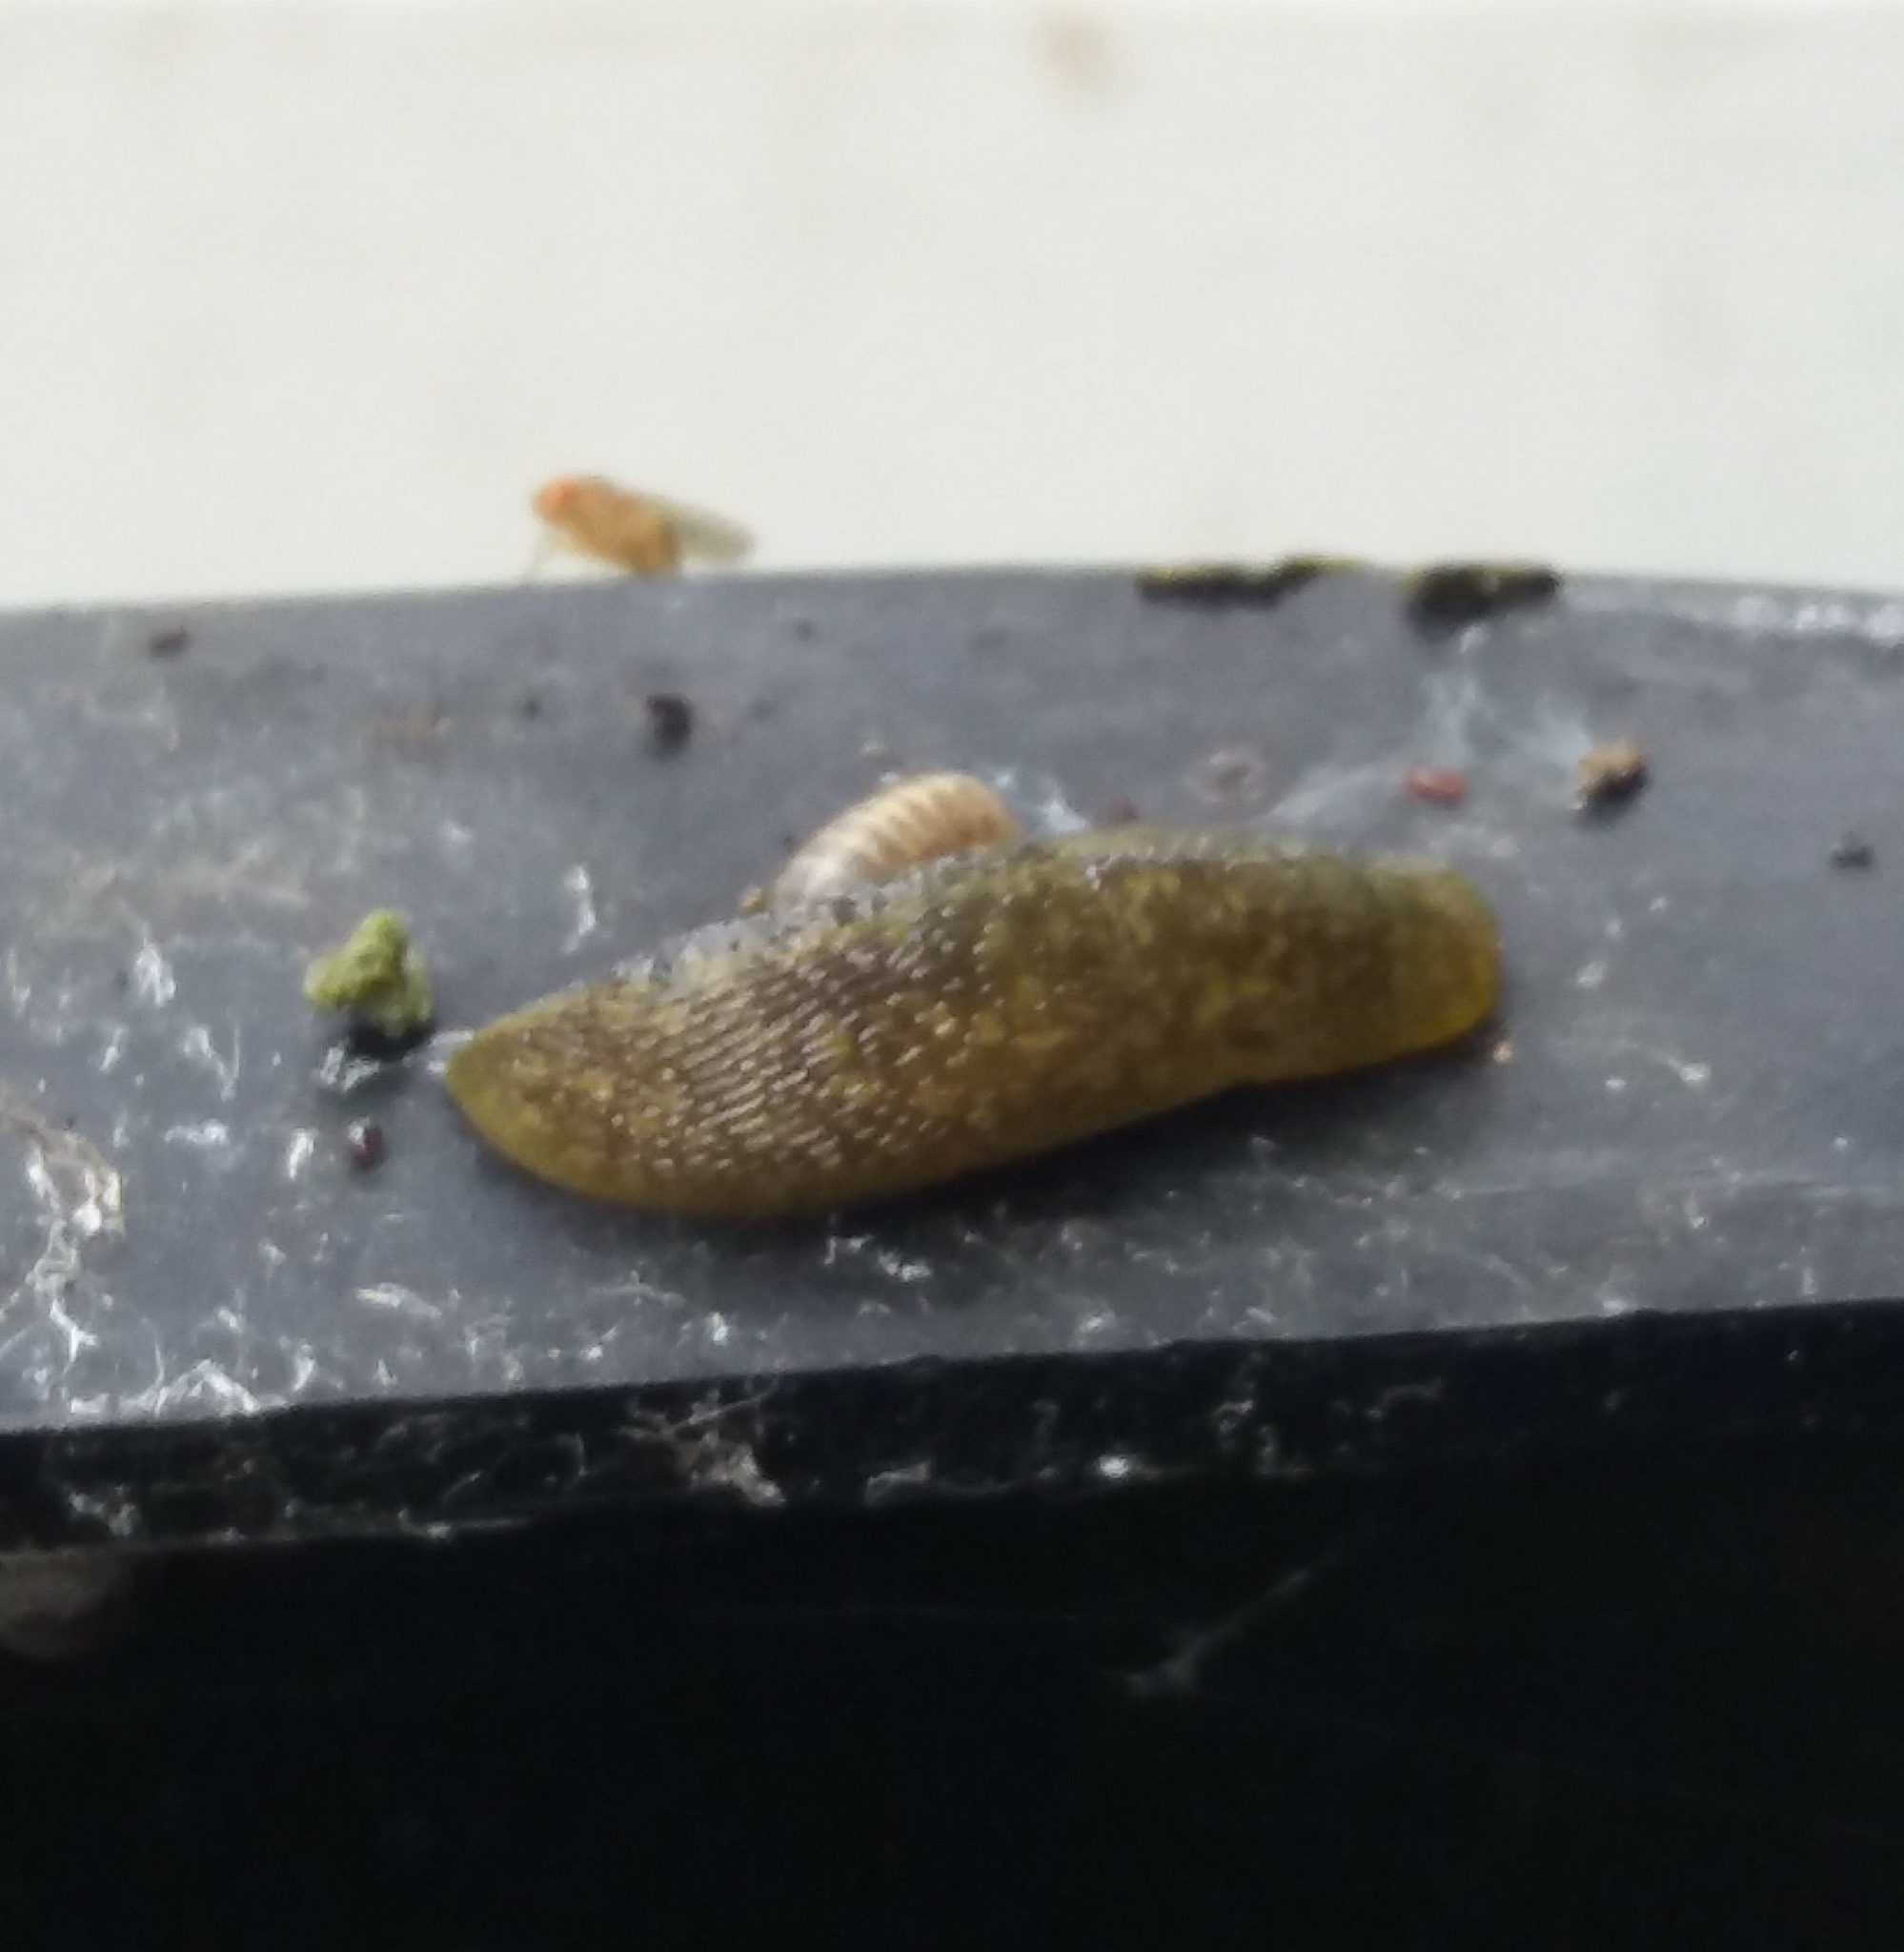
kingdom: Animalia
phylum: Mollusca
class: Gastropoda
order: Stylommatophora
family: Limacidae
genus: Limacus
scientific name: Limacus flavus
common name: Yellow gardenslug
